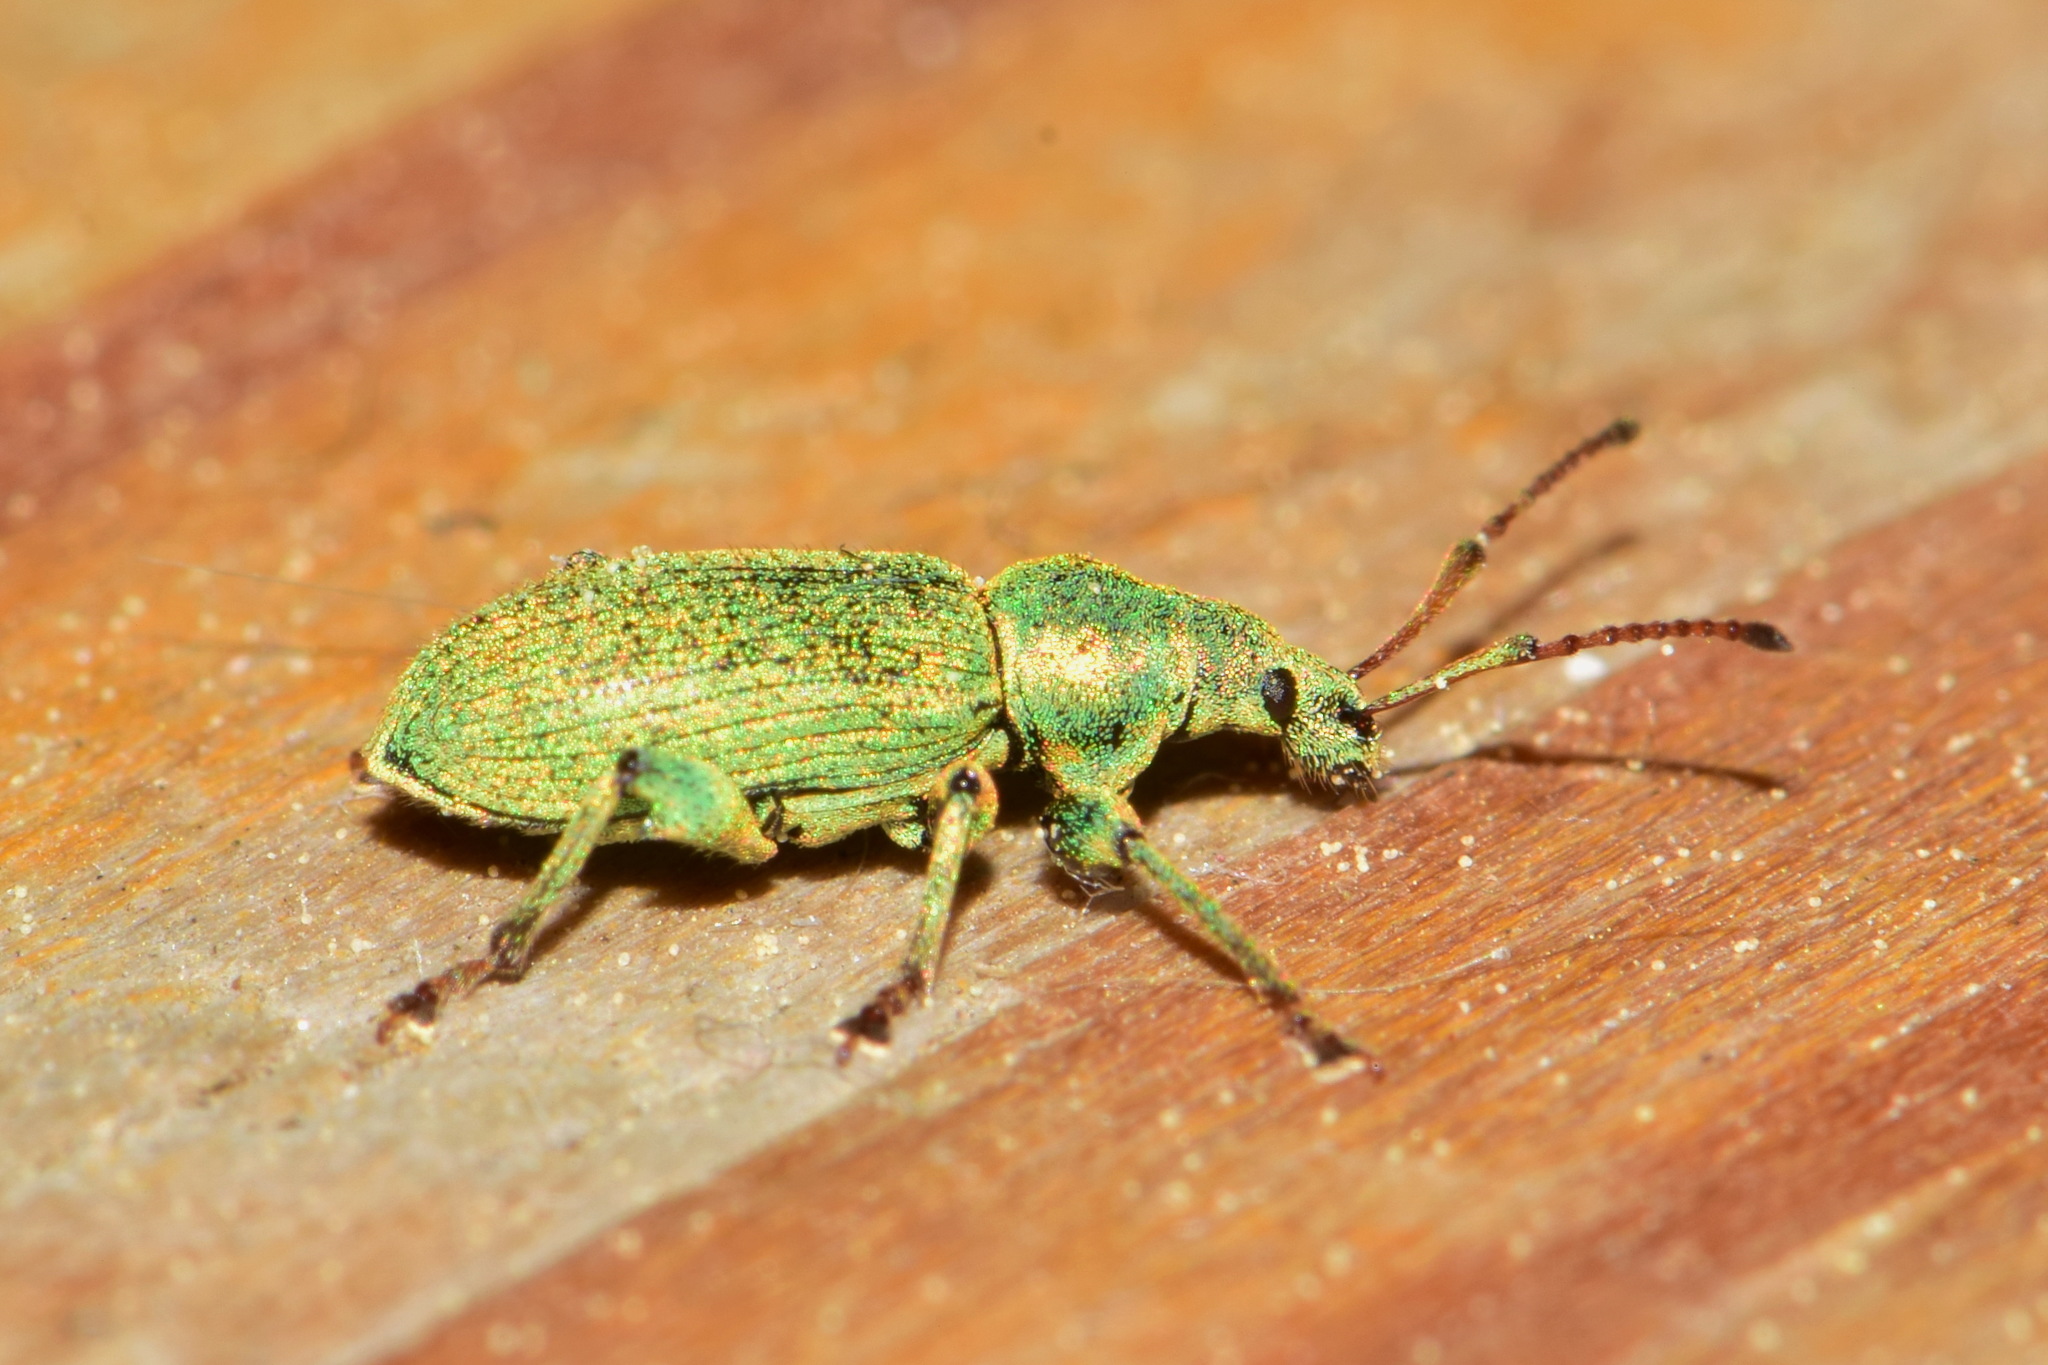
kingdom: Animalia
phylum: Arthropoda
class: Insecta
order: Coleoptera
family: Curculionidae
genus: Phyllobius
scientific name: Phyllobius maculicornis
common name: Green leaf weevil
